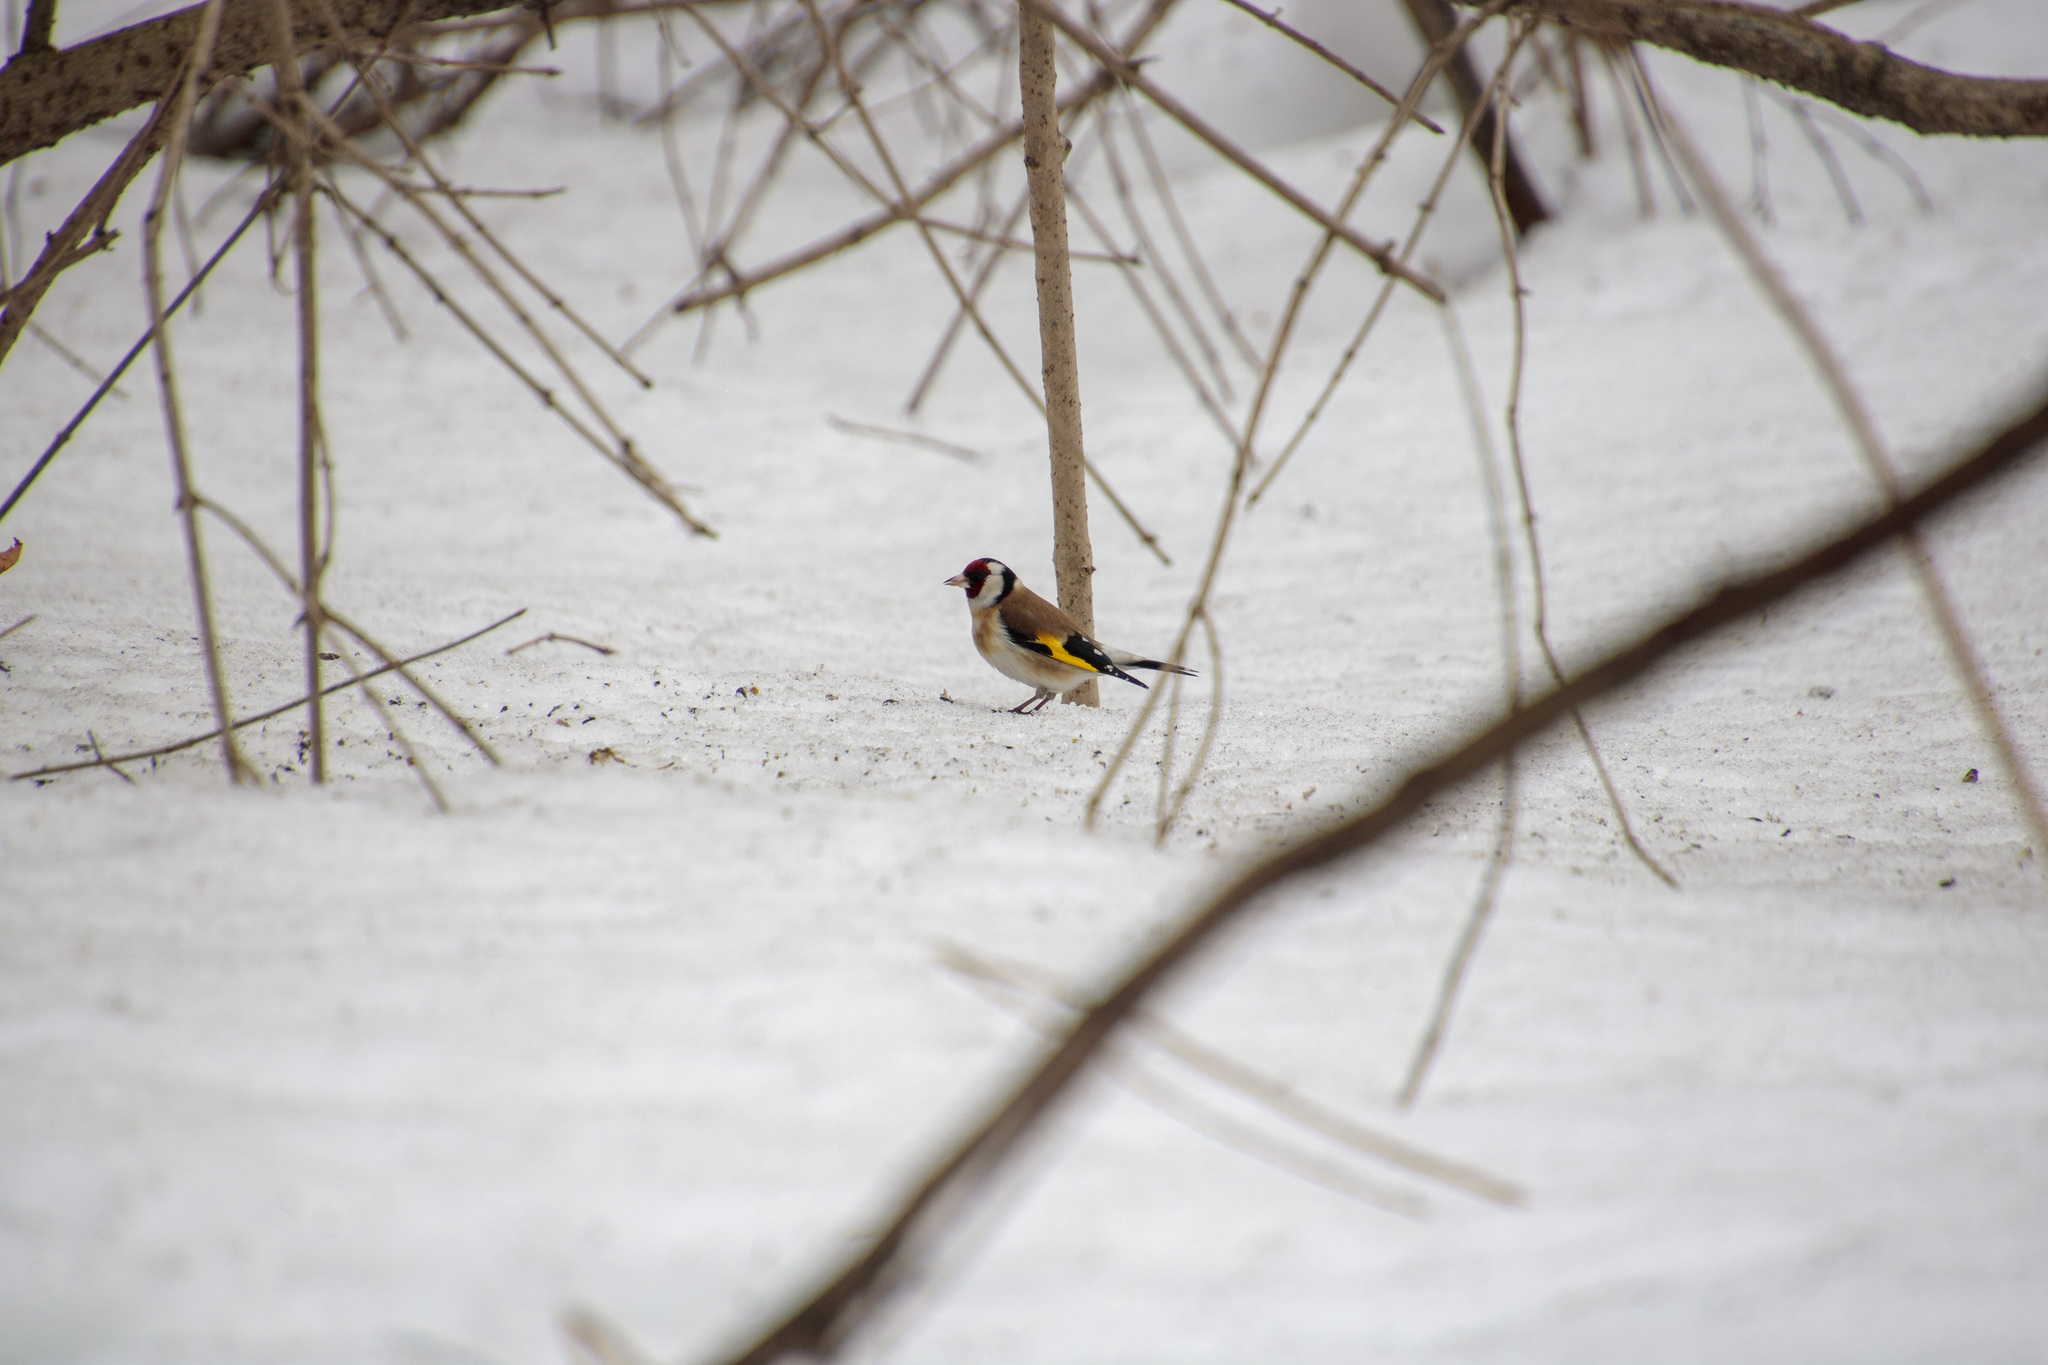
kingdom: Animalia
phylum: Chordata
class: Aves
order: Passeriformes
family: Fringillidae
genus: Carduelis
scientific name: Carduelis carduelis
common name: European goldfinch
